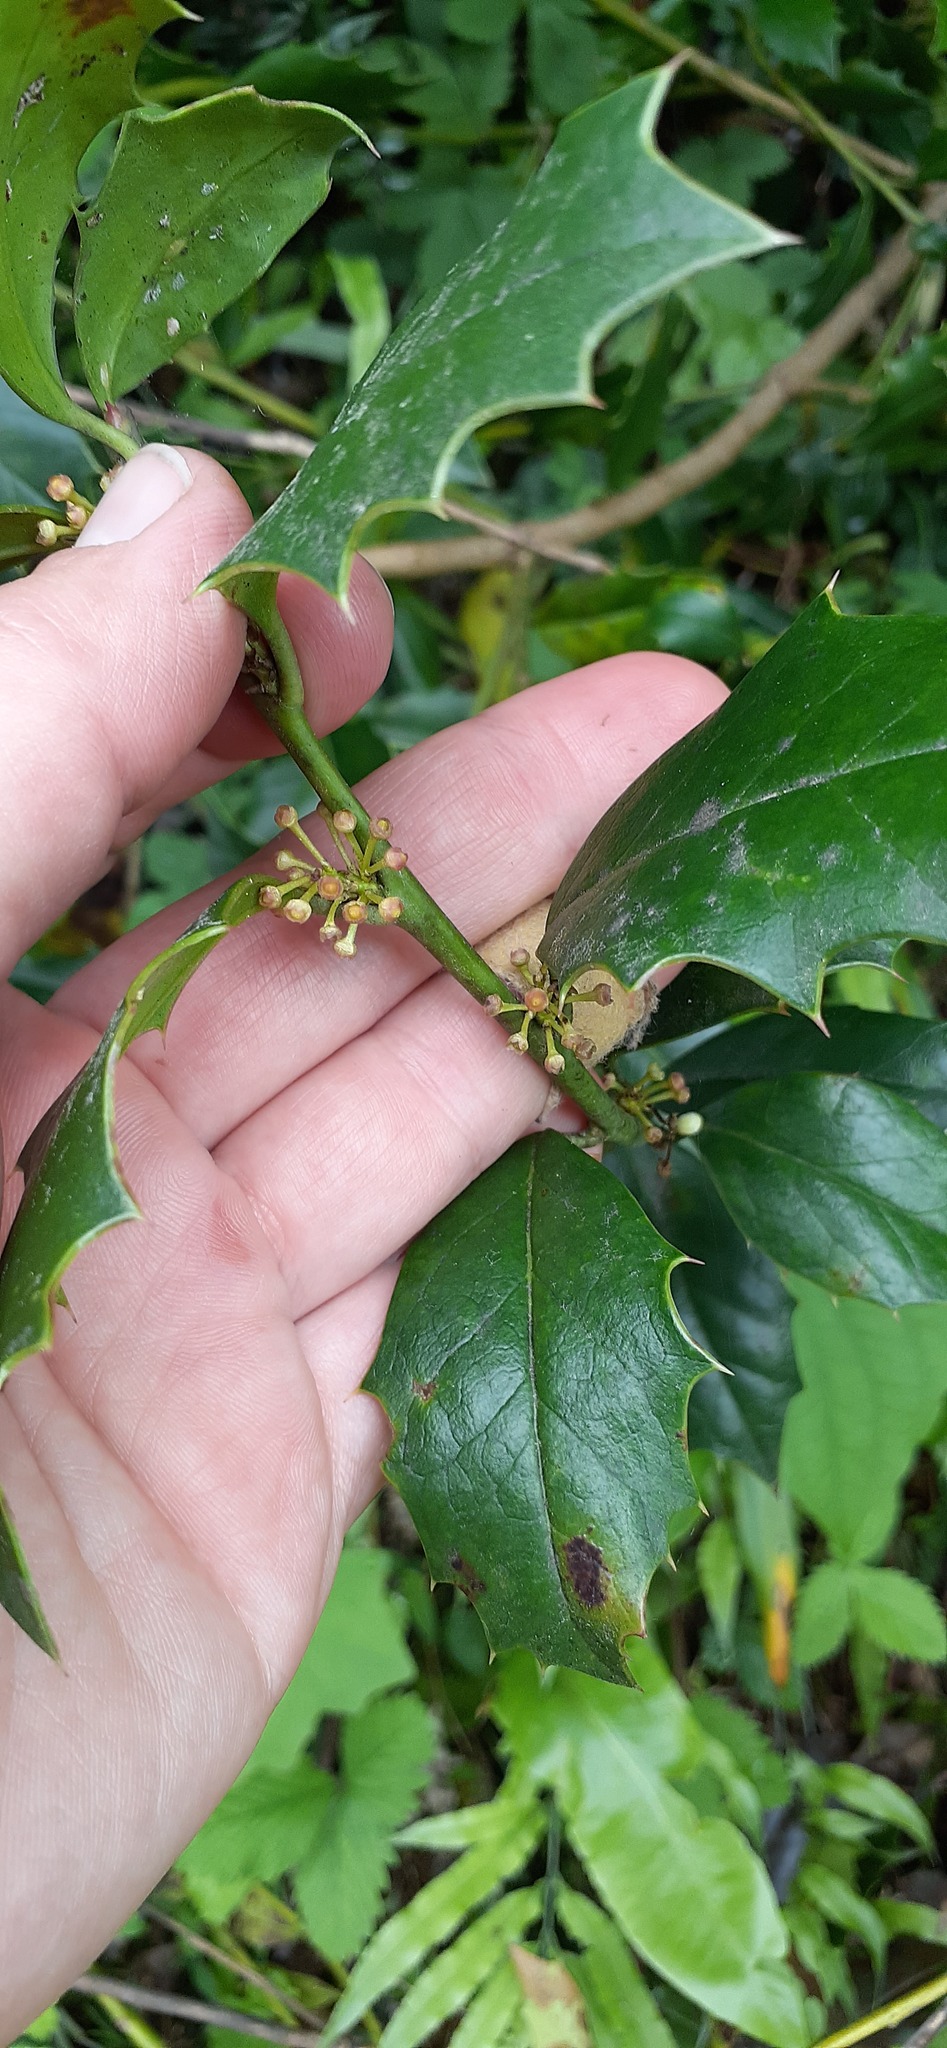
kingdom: Plantae
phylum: Tracheophyta
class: Magnoliopsida
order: Aquifoliales
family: Aquifoliaceae
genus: Ilex
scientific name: Ilex colchica
